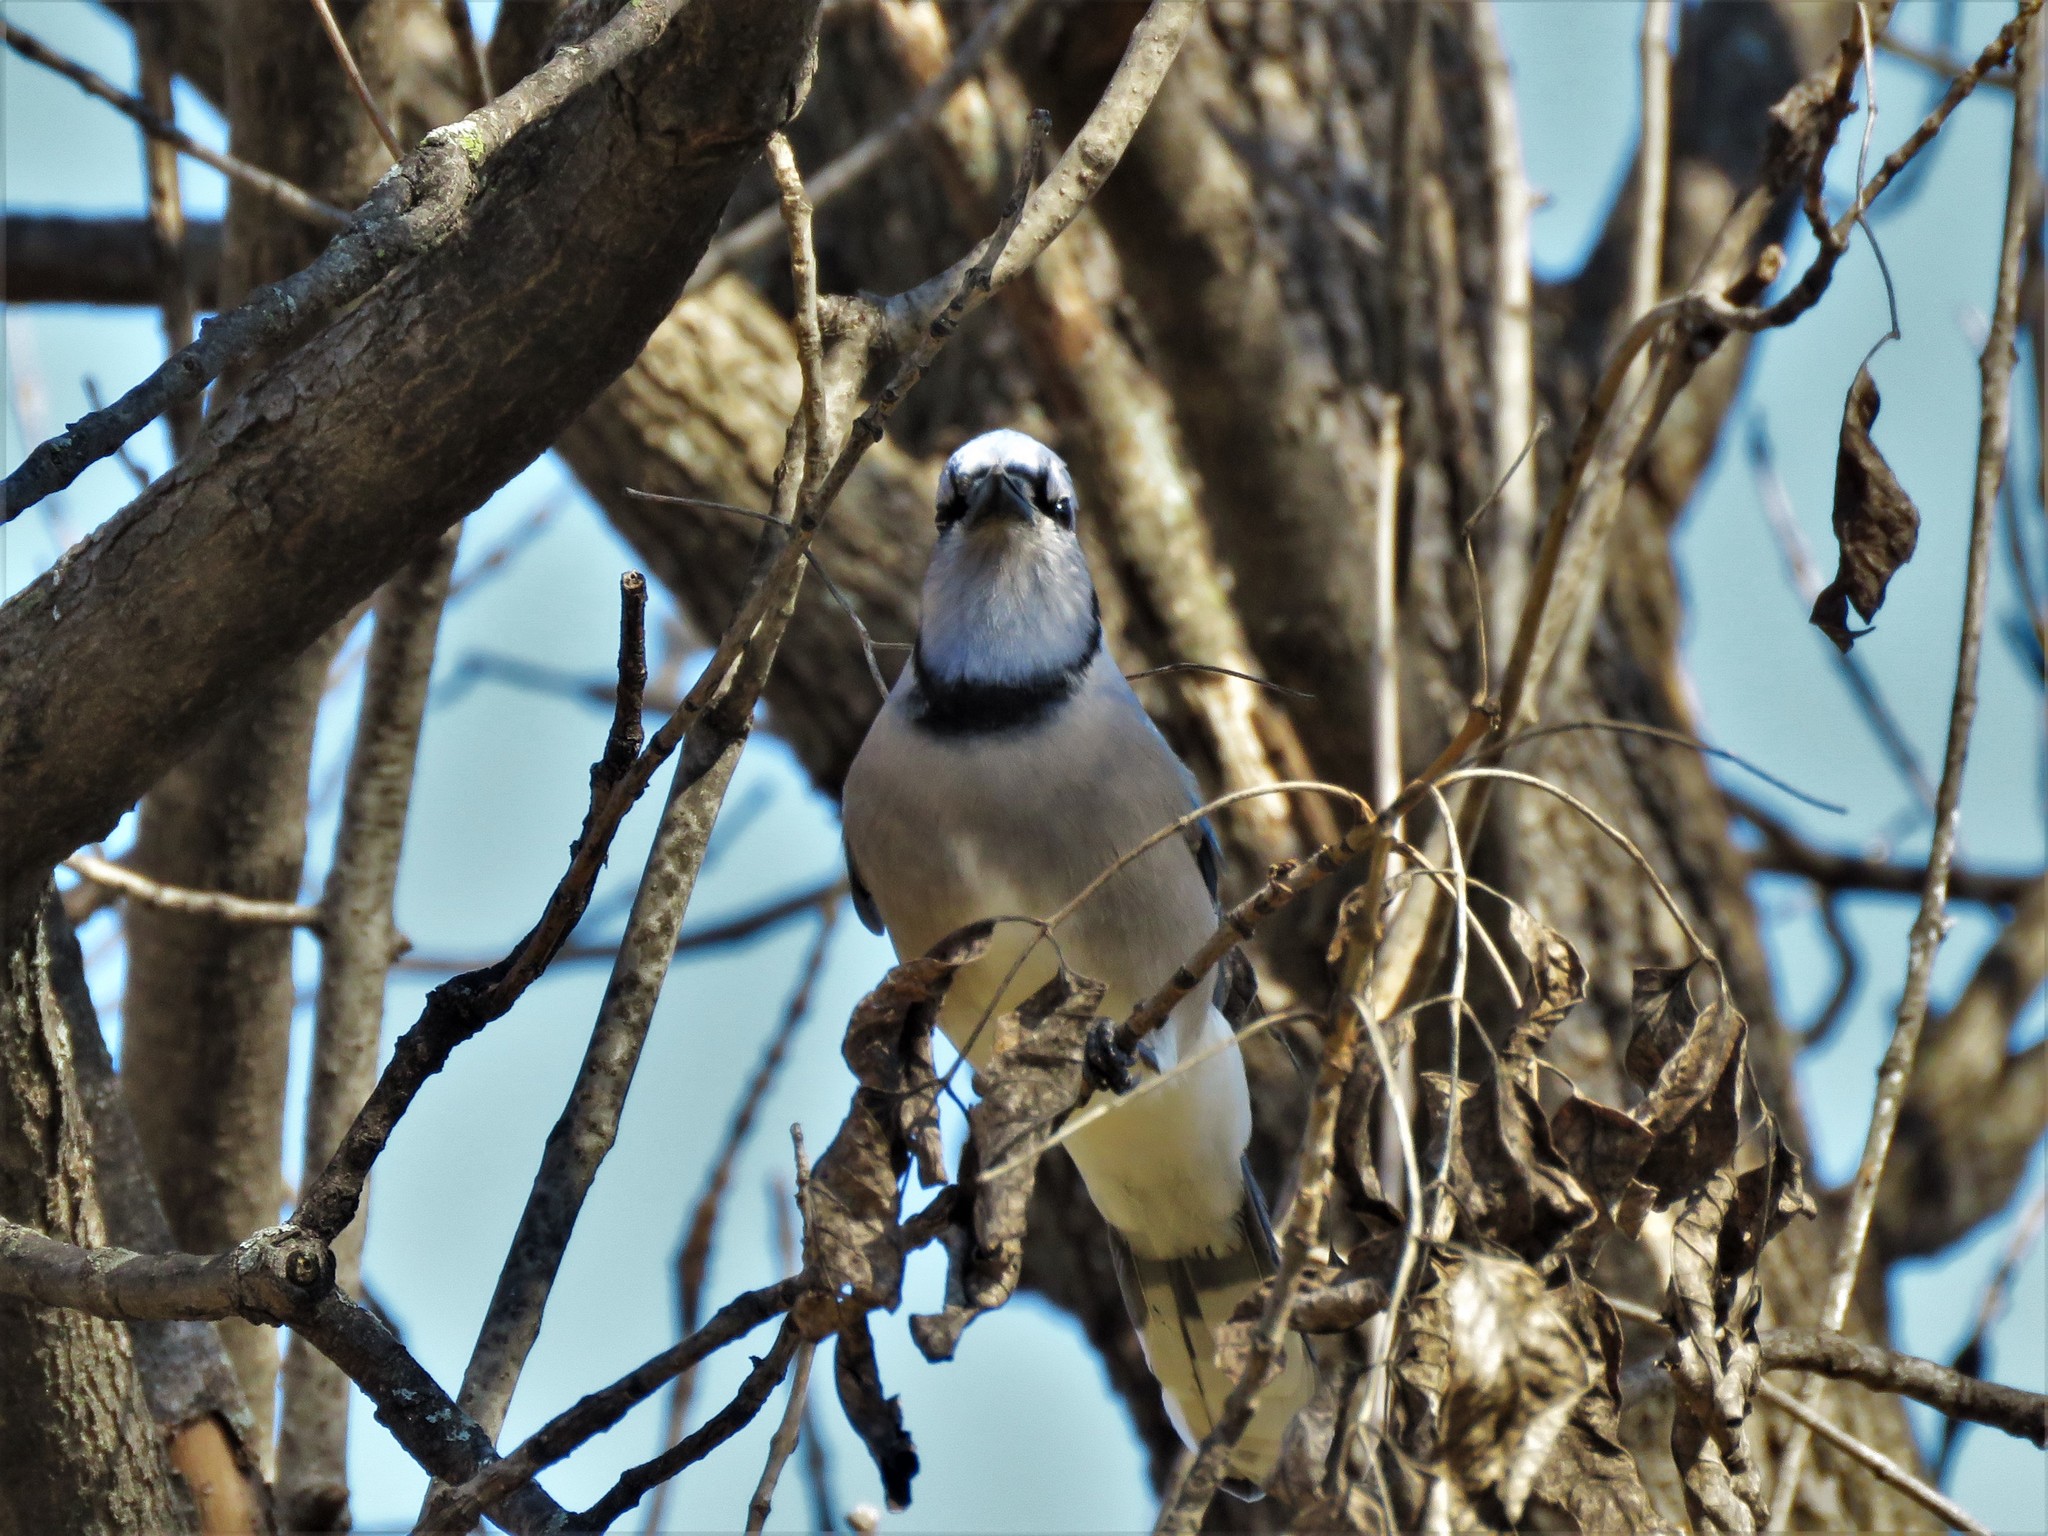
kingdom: Animalia
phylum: Chordata
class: Aves
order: Passeriformes
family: Corvidae
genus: Cyanocitta
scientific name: Cyanocitta cristata
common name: Blue jay
